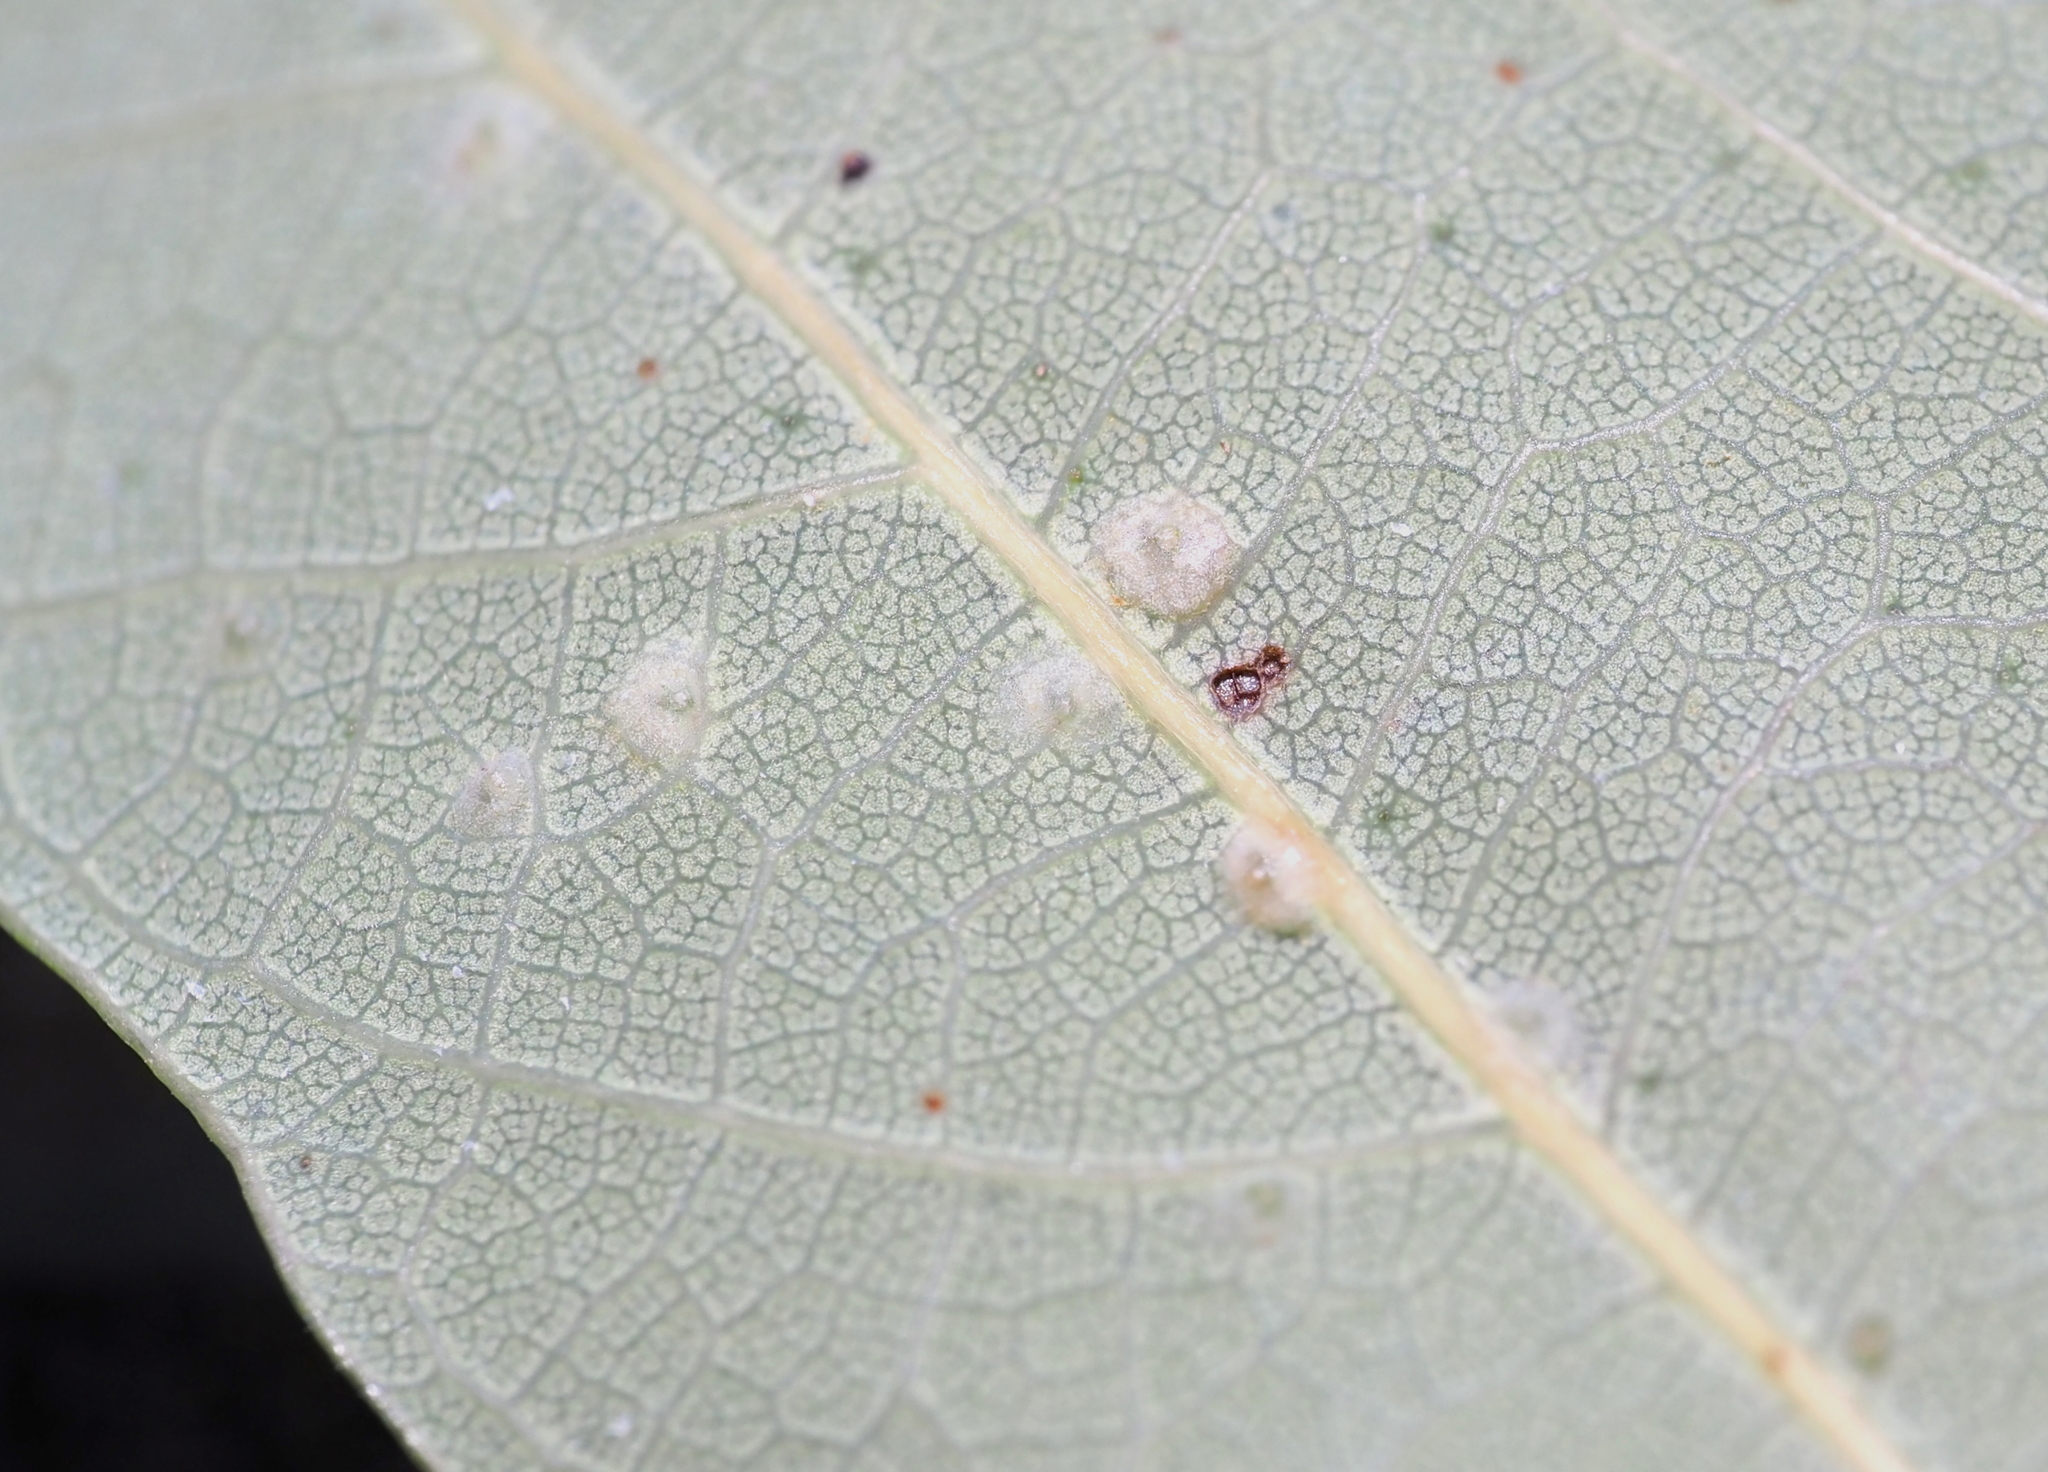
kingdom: Animalia
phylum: Arthropoda
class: Insecta
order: Hymenoptera
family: Cynipidae
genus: Neuroterus
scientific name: Neuroterus niger
